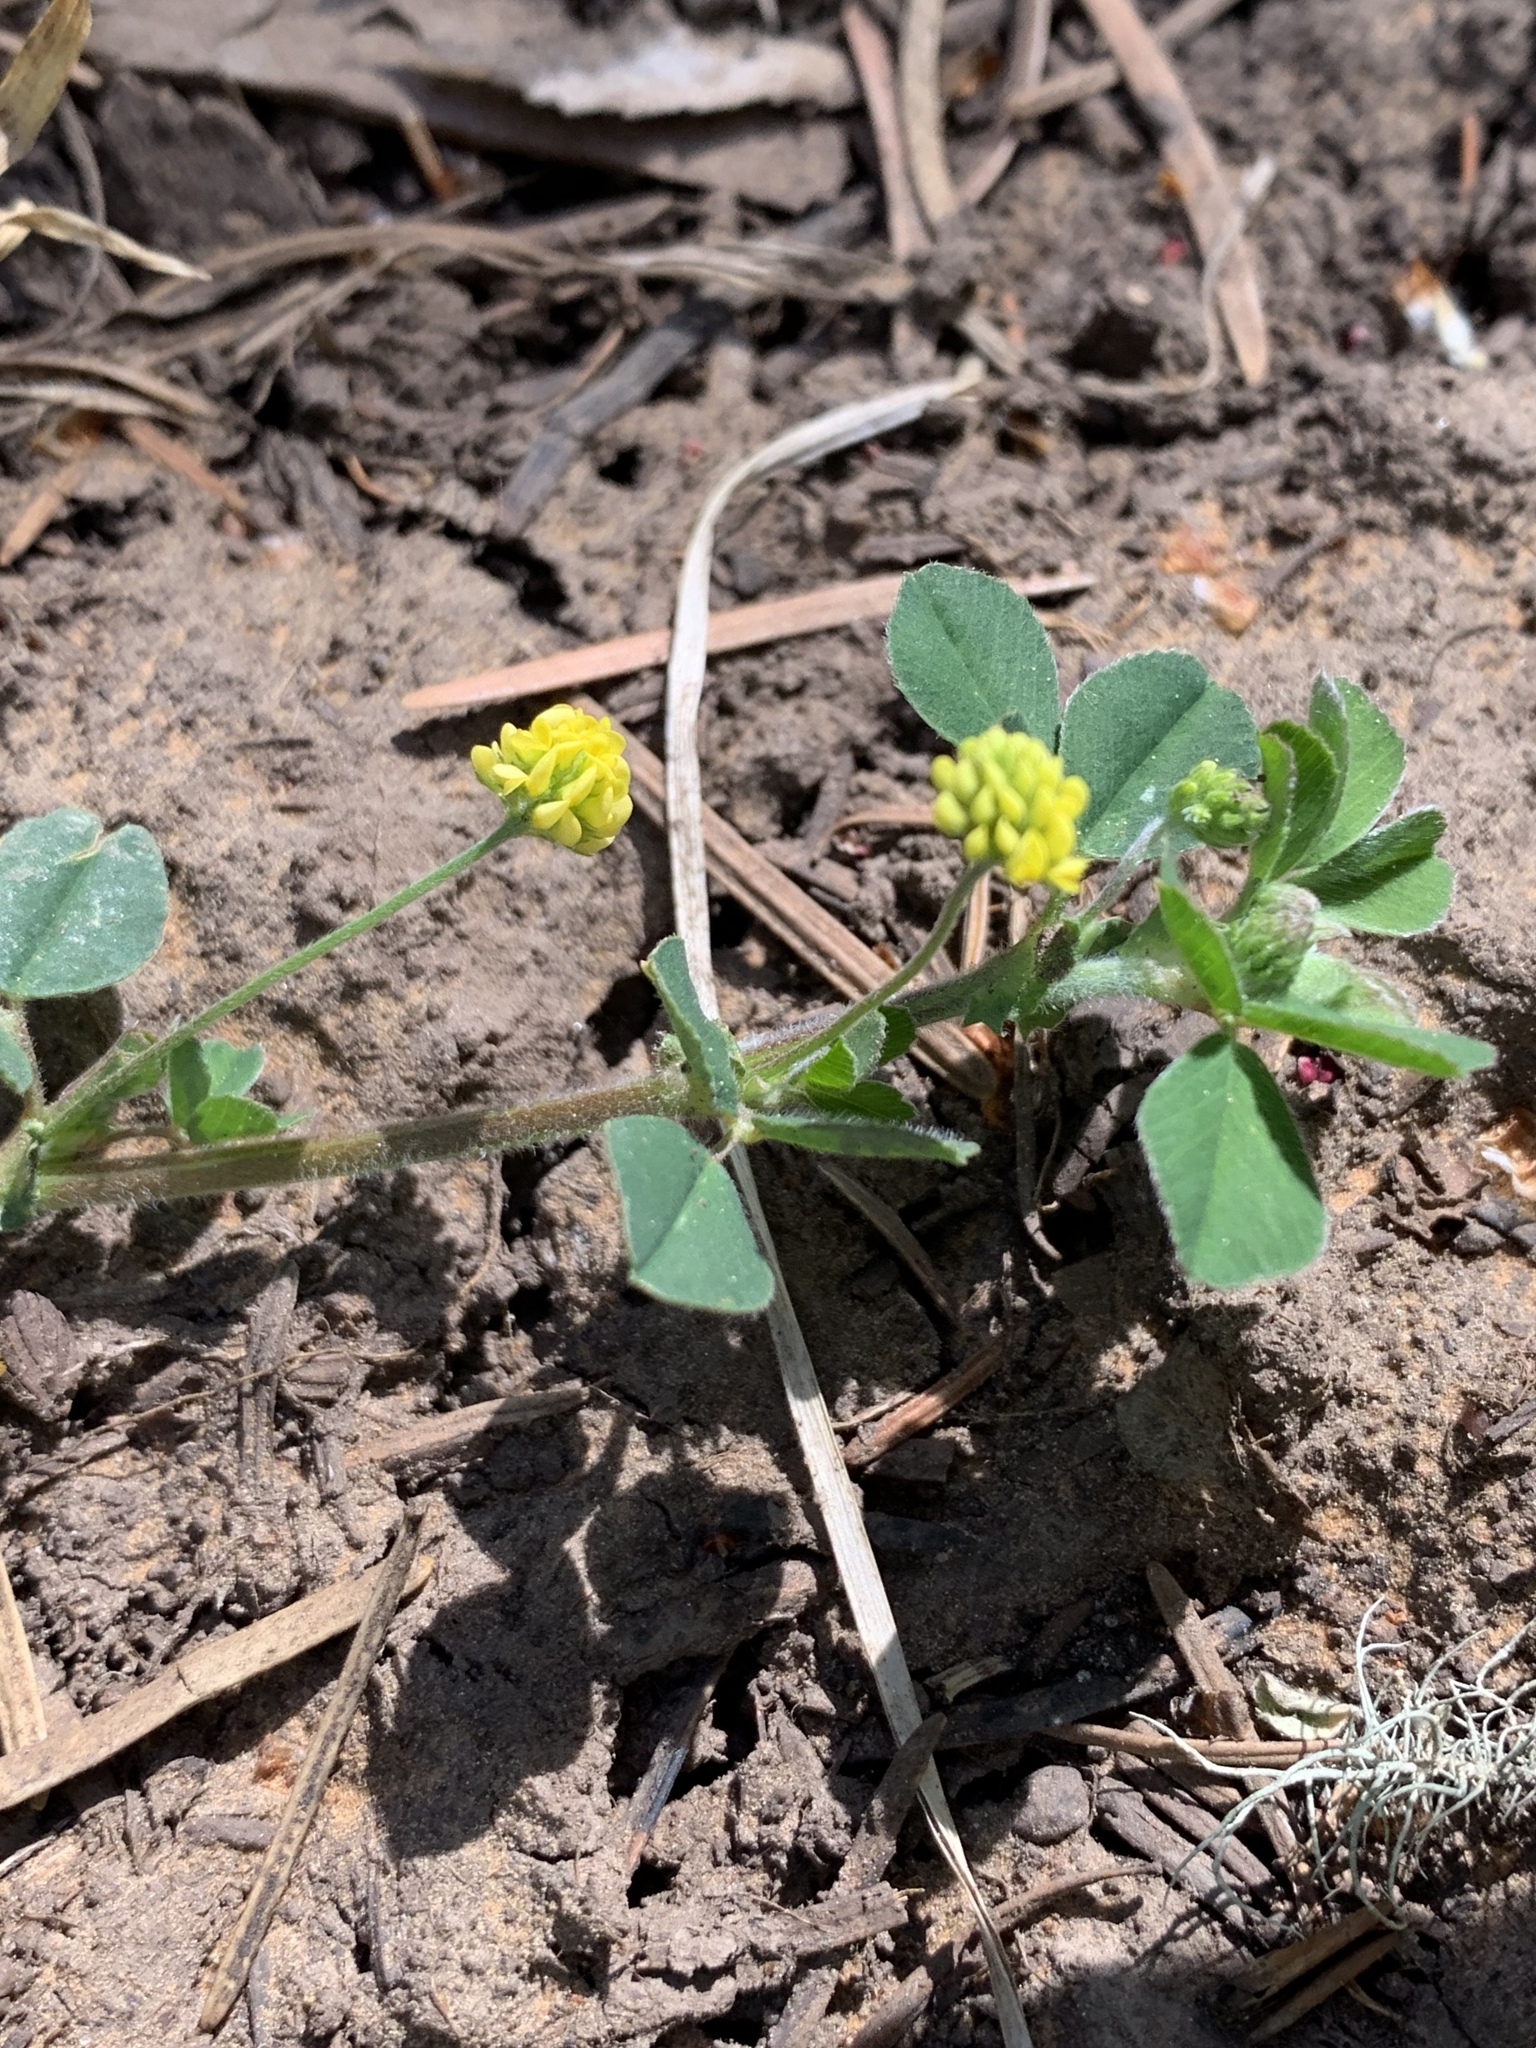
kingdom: Plantae
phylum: Tracheophyta
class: Magnoliopsida
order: Fabales
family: Fabaceae
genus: Medicago
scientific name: Medicago lupulina
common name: Black medick
